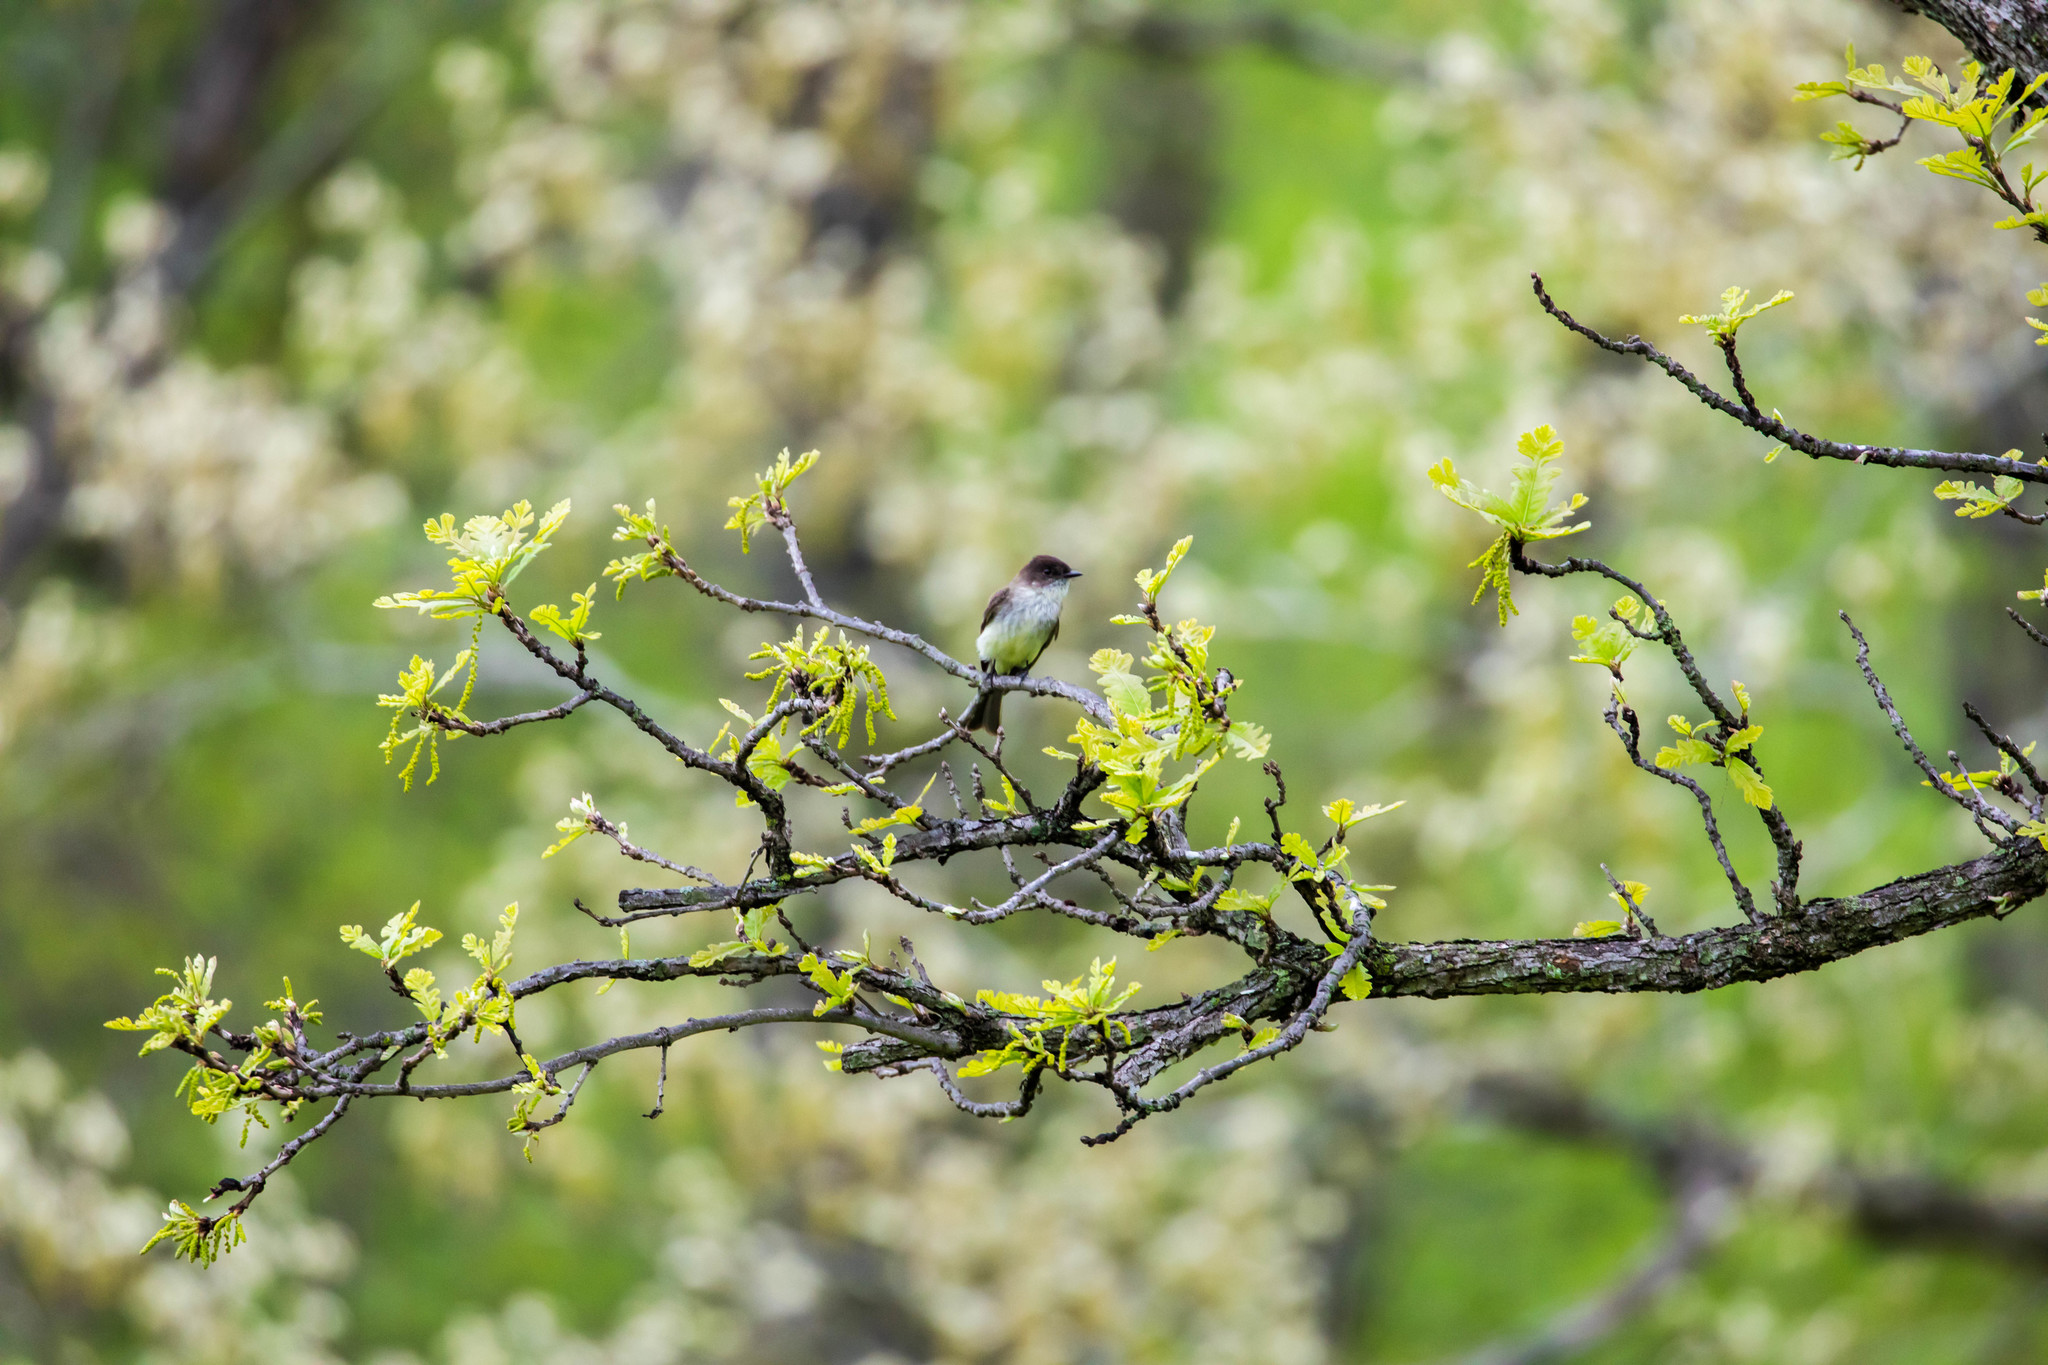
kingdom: Animalia
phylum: Chordata
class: Aves
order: Passeriformes
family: Tyrannidae
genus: Sayornis
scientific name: Sayornis phoebe
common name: Eastern phoebe
